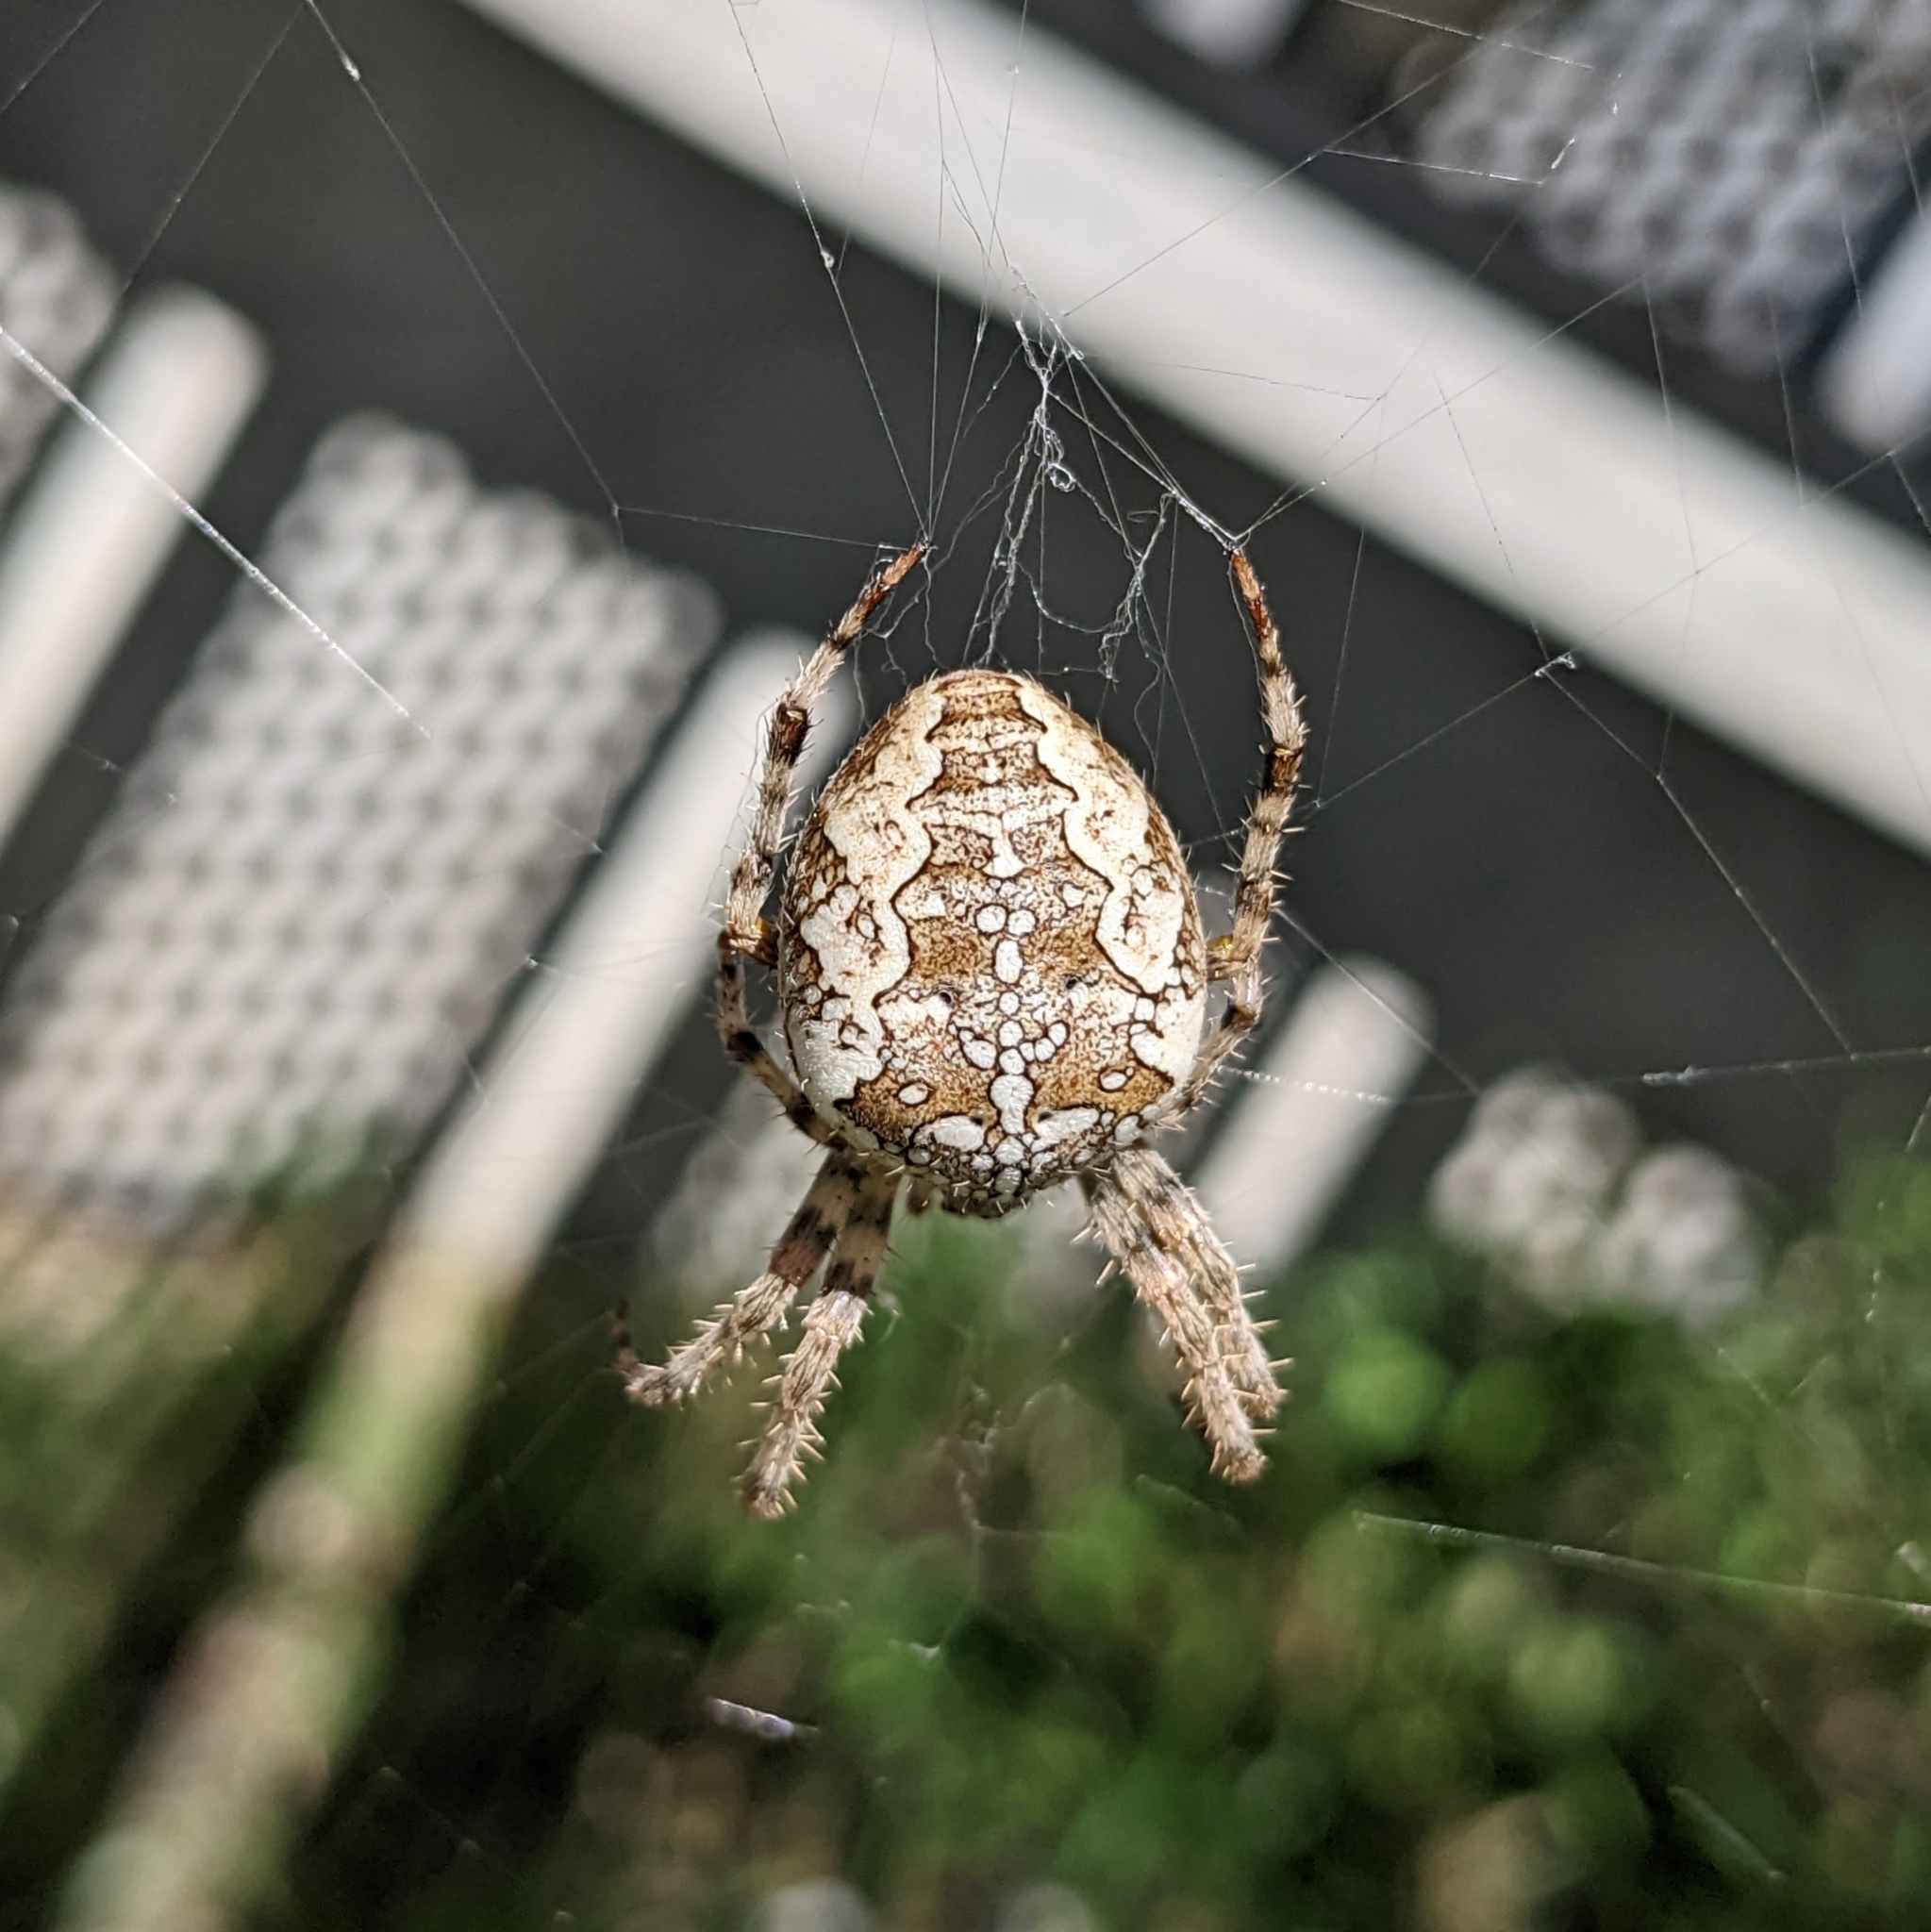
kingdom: Animalia
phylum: Arthropoda
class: Arachnida
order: Araneae
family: Araneidae
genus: Araneus
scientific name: Araneus diadematus
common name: Cross orbweaver
